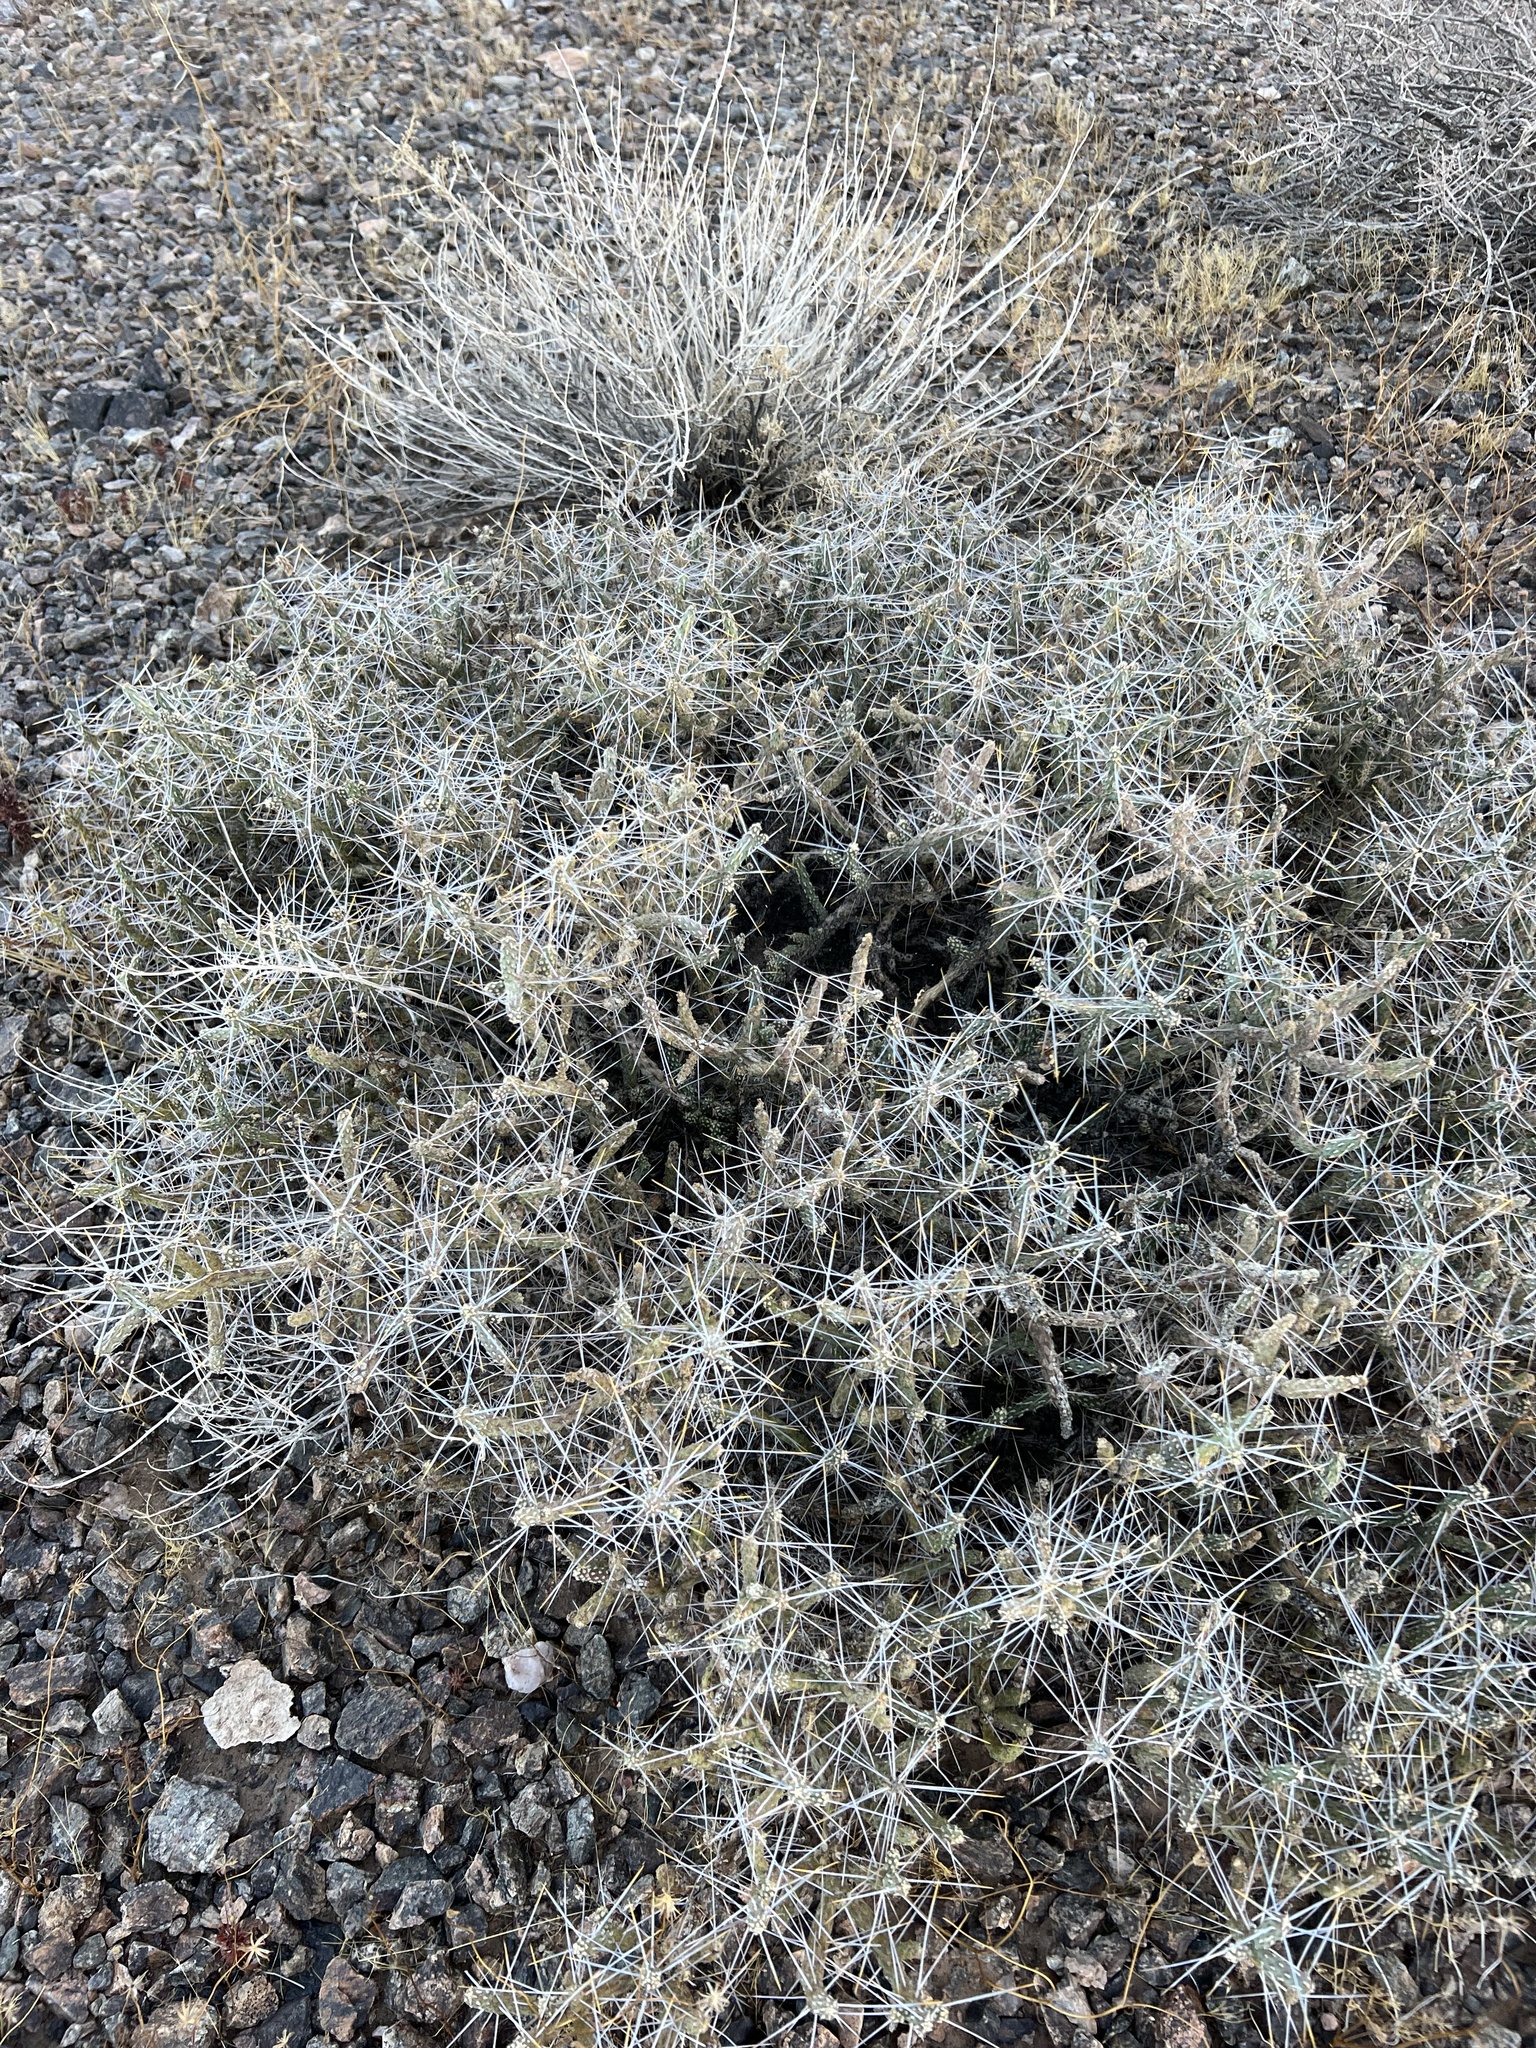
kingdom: Plantae
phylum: Tracheophyta
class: Magnoliopsida
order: Caryophyllales
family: Cactaceae
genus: Cylindropuntia
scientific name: Cylindropuntia ramosissima
